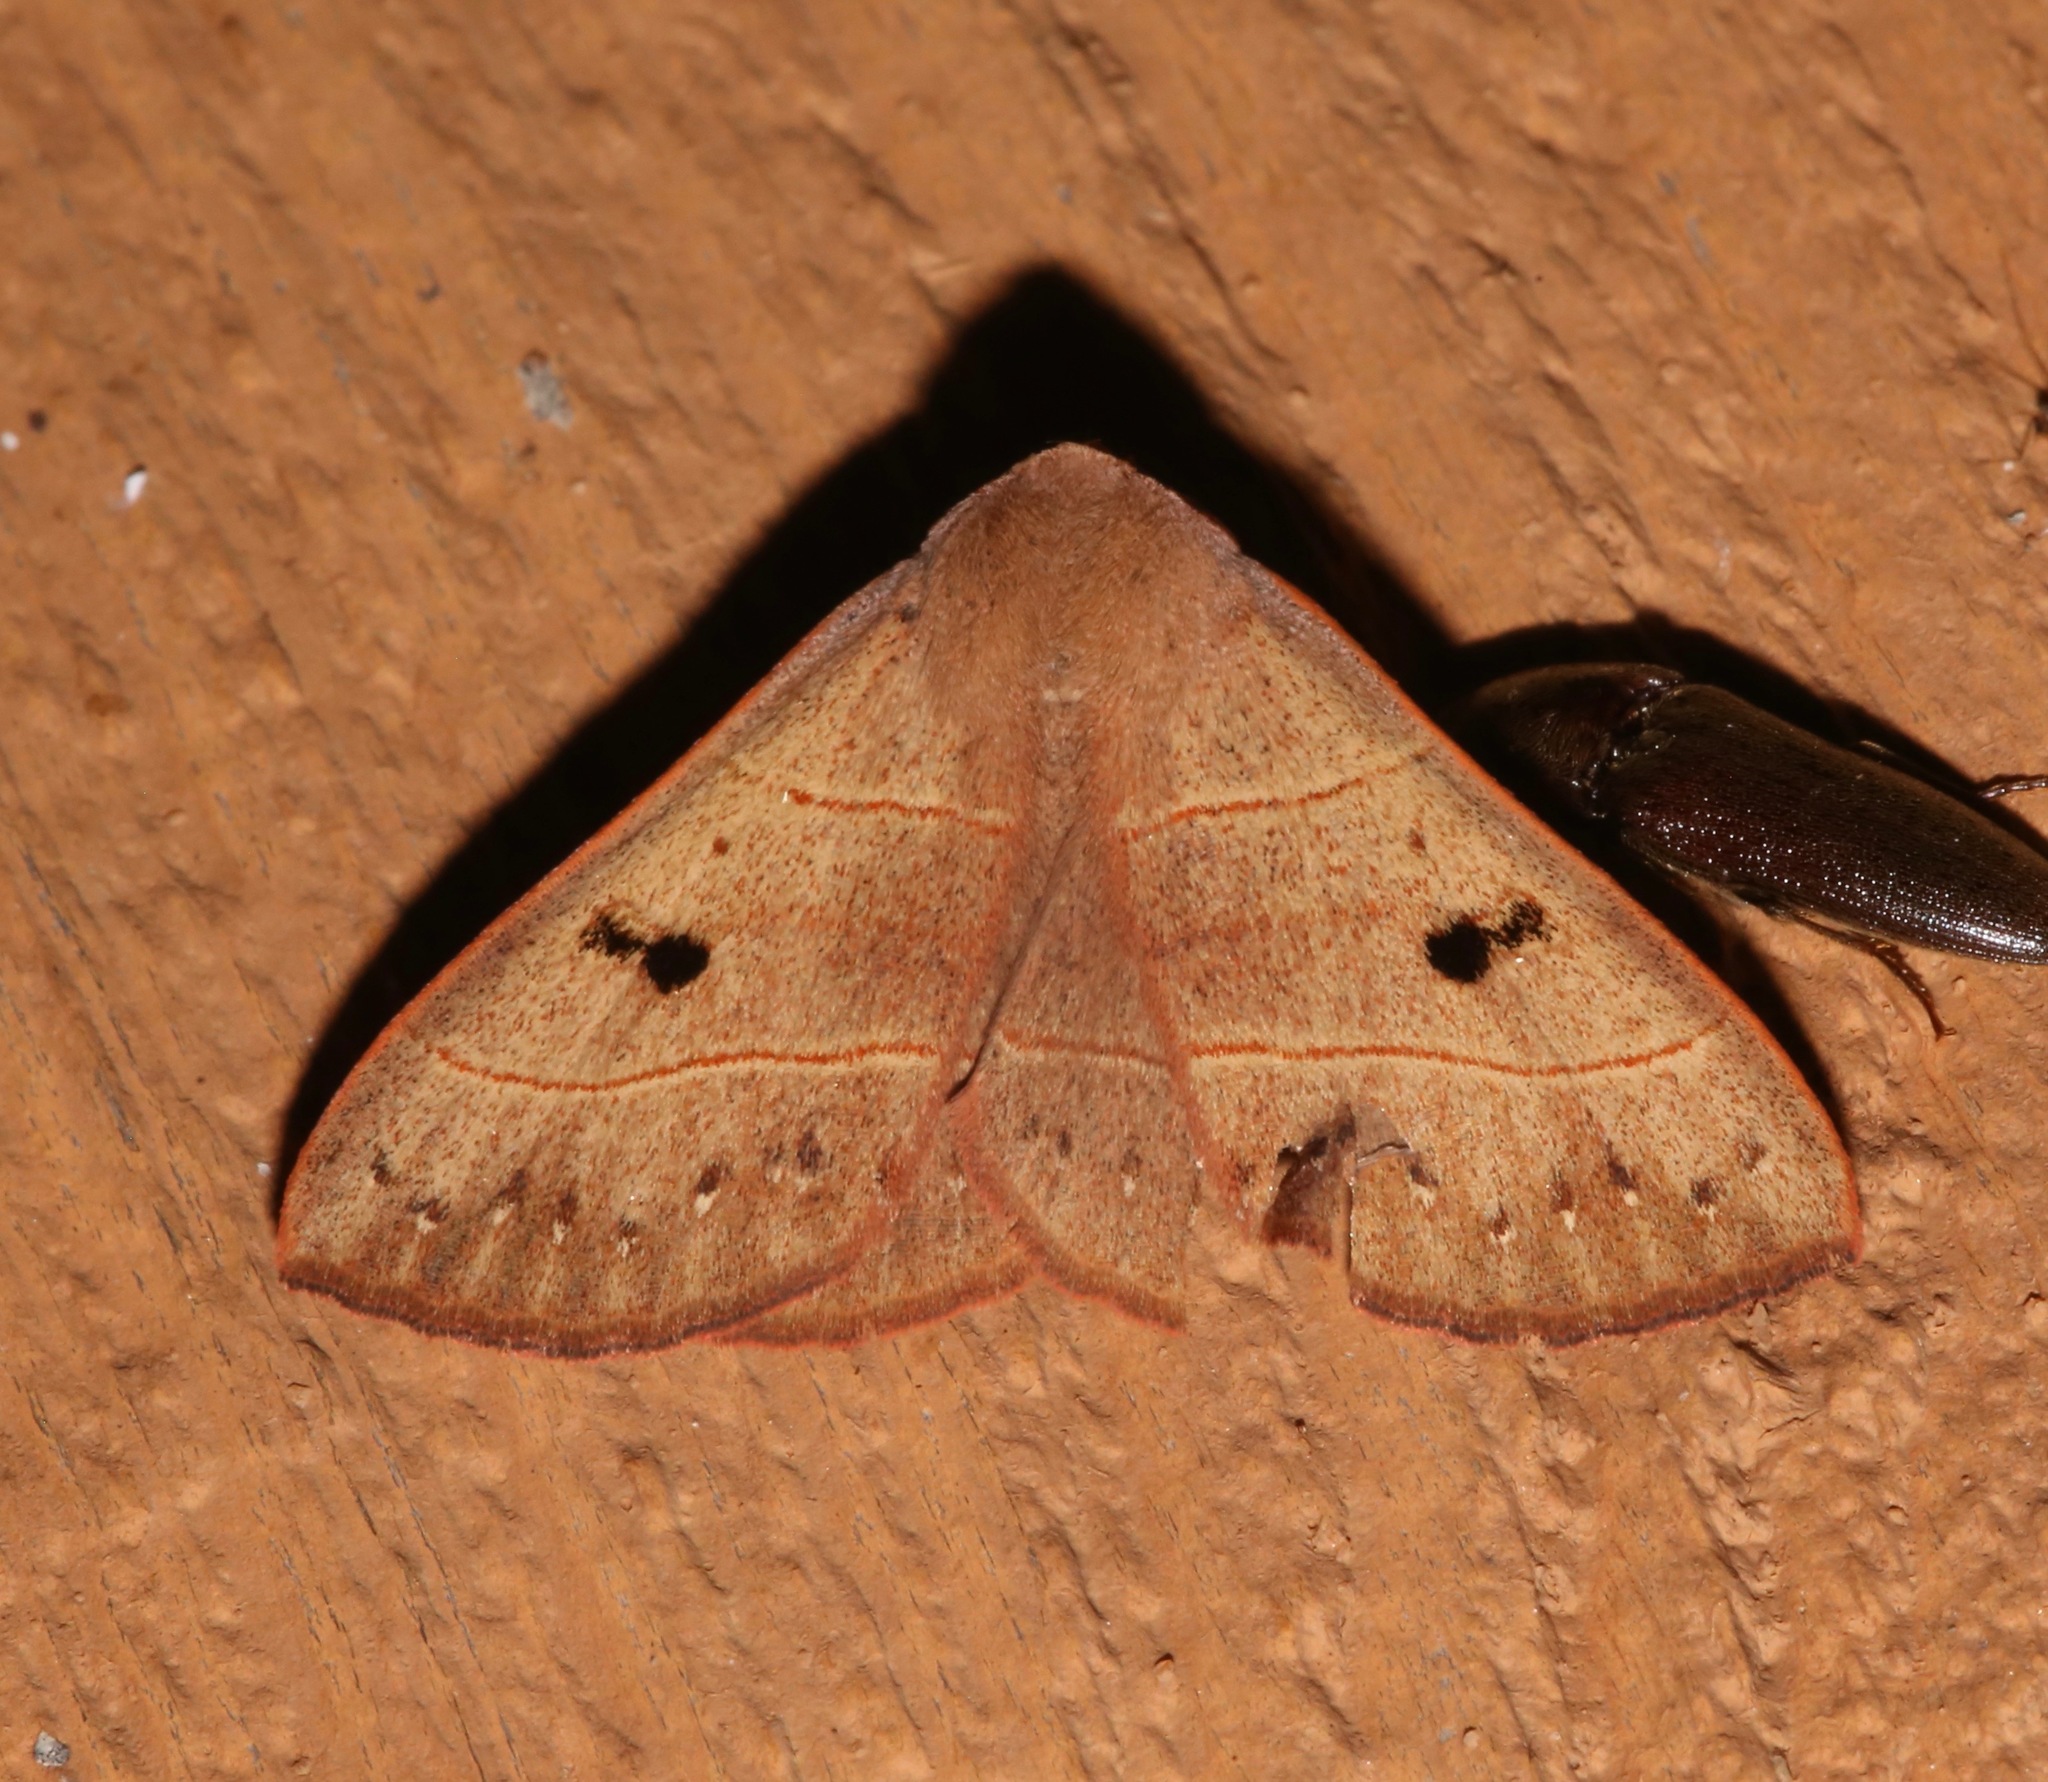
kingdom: Animalia
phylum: Arthropoda
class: Insecta
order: Lepidoptera
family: Erebidae
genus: Panopoda
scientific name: Panopoda rufimargo
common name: Red-lined panopoda moth
